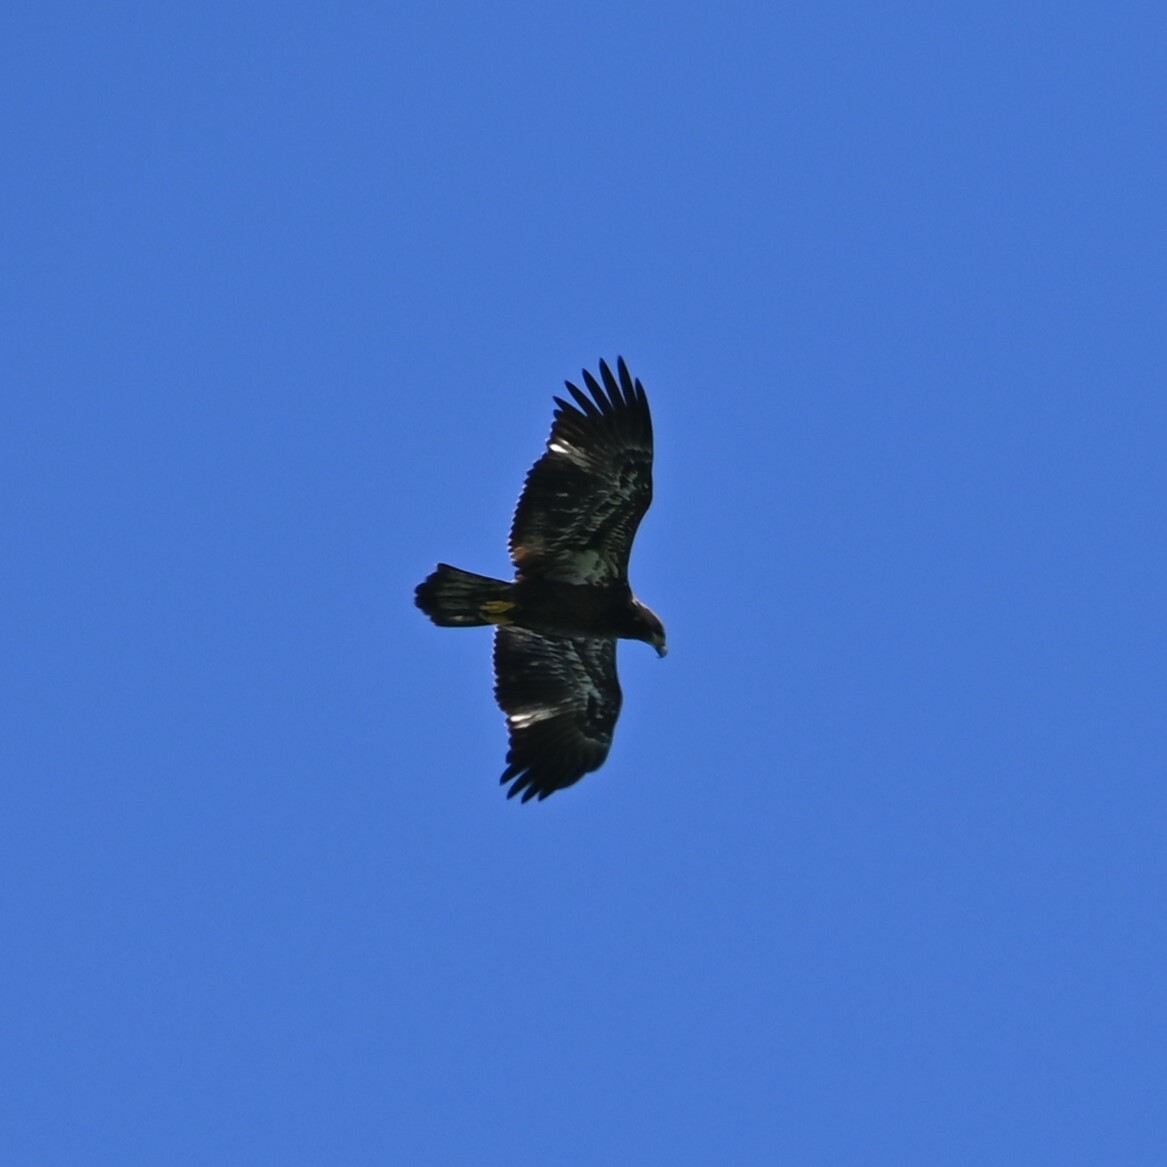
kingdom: Animalia
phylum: Chordata
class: Aves
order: Accipitriformes
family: Accipitridae
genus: Haliaeetus
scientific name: Haliaeetus leucocephalus
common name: Bald eagle
